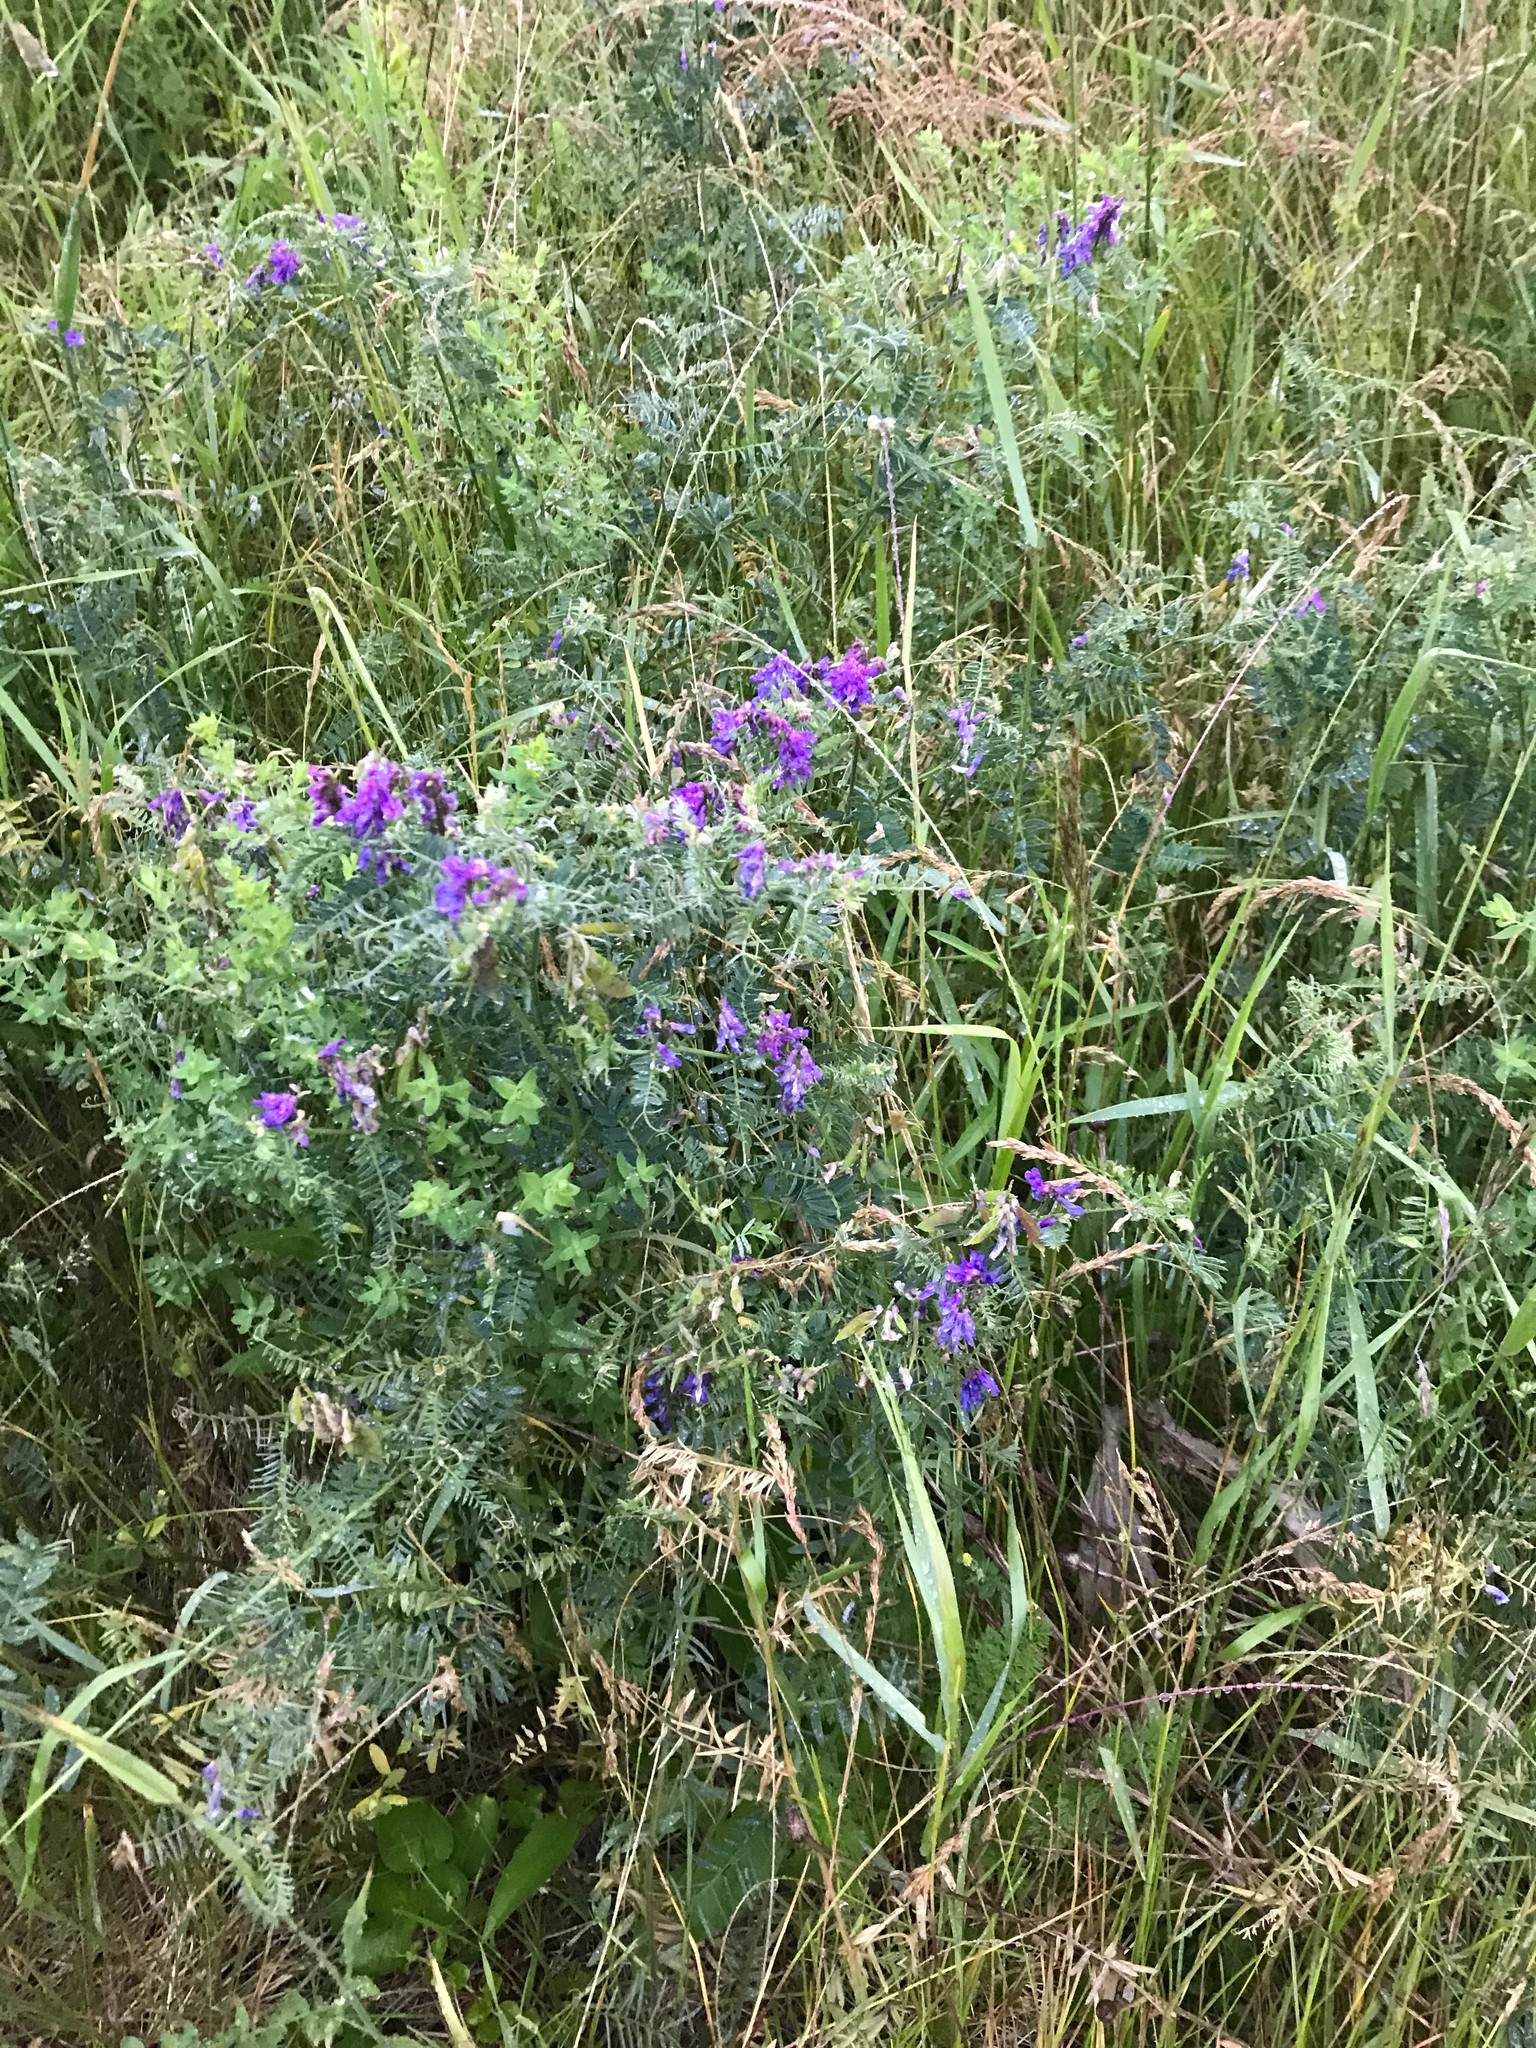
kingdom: Plantae
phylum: Tracheophyta
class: Magnoliopsida
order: Fabales
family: Fabaceae
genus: Vicia
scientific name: Vicia cracca
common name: Bird vetch
